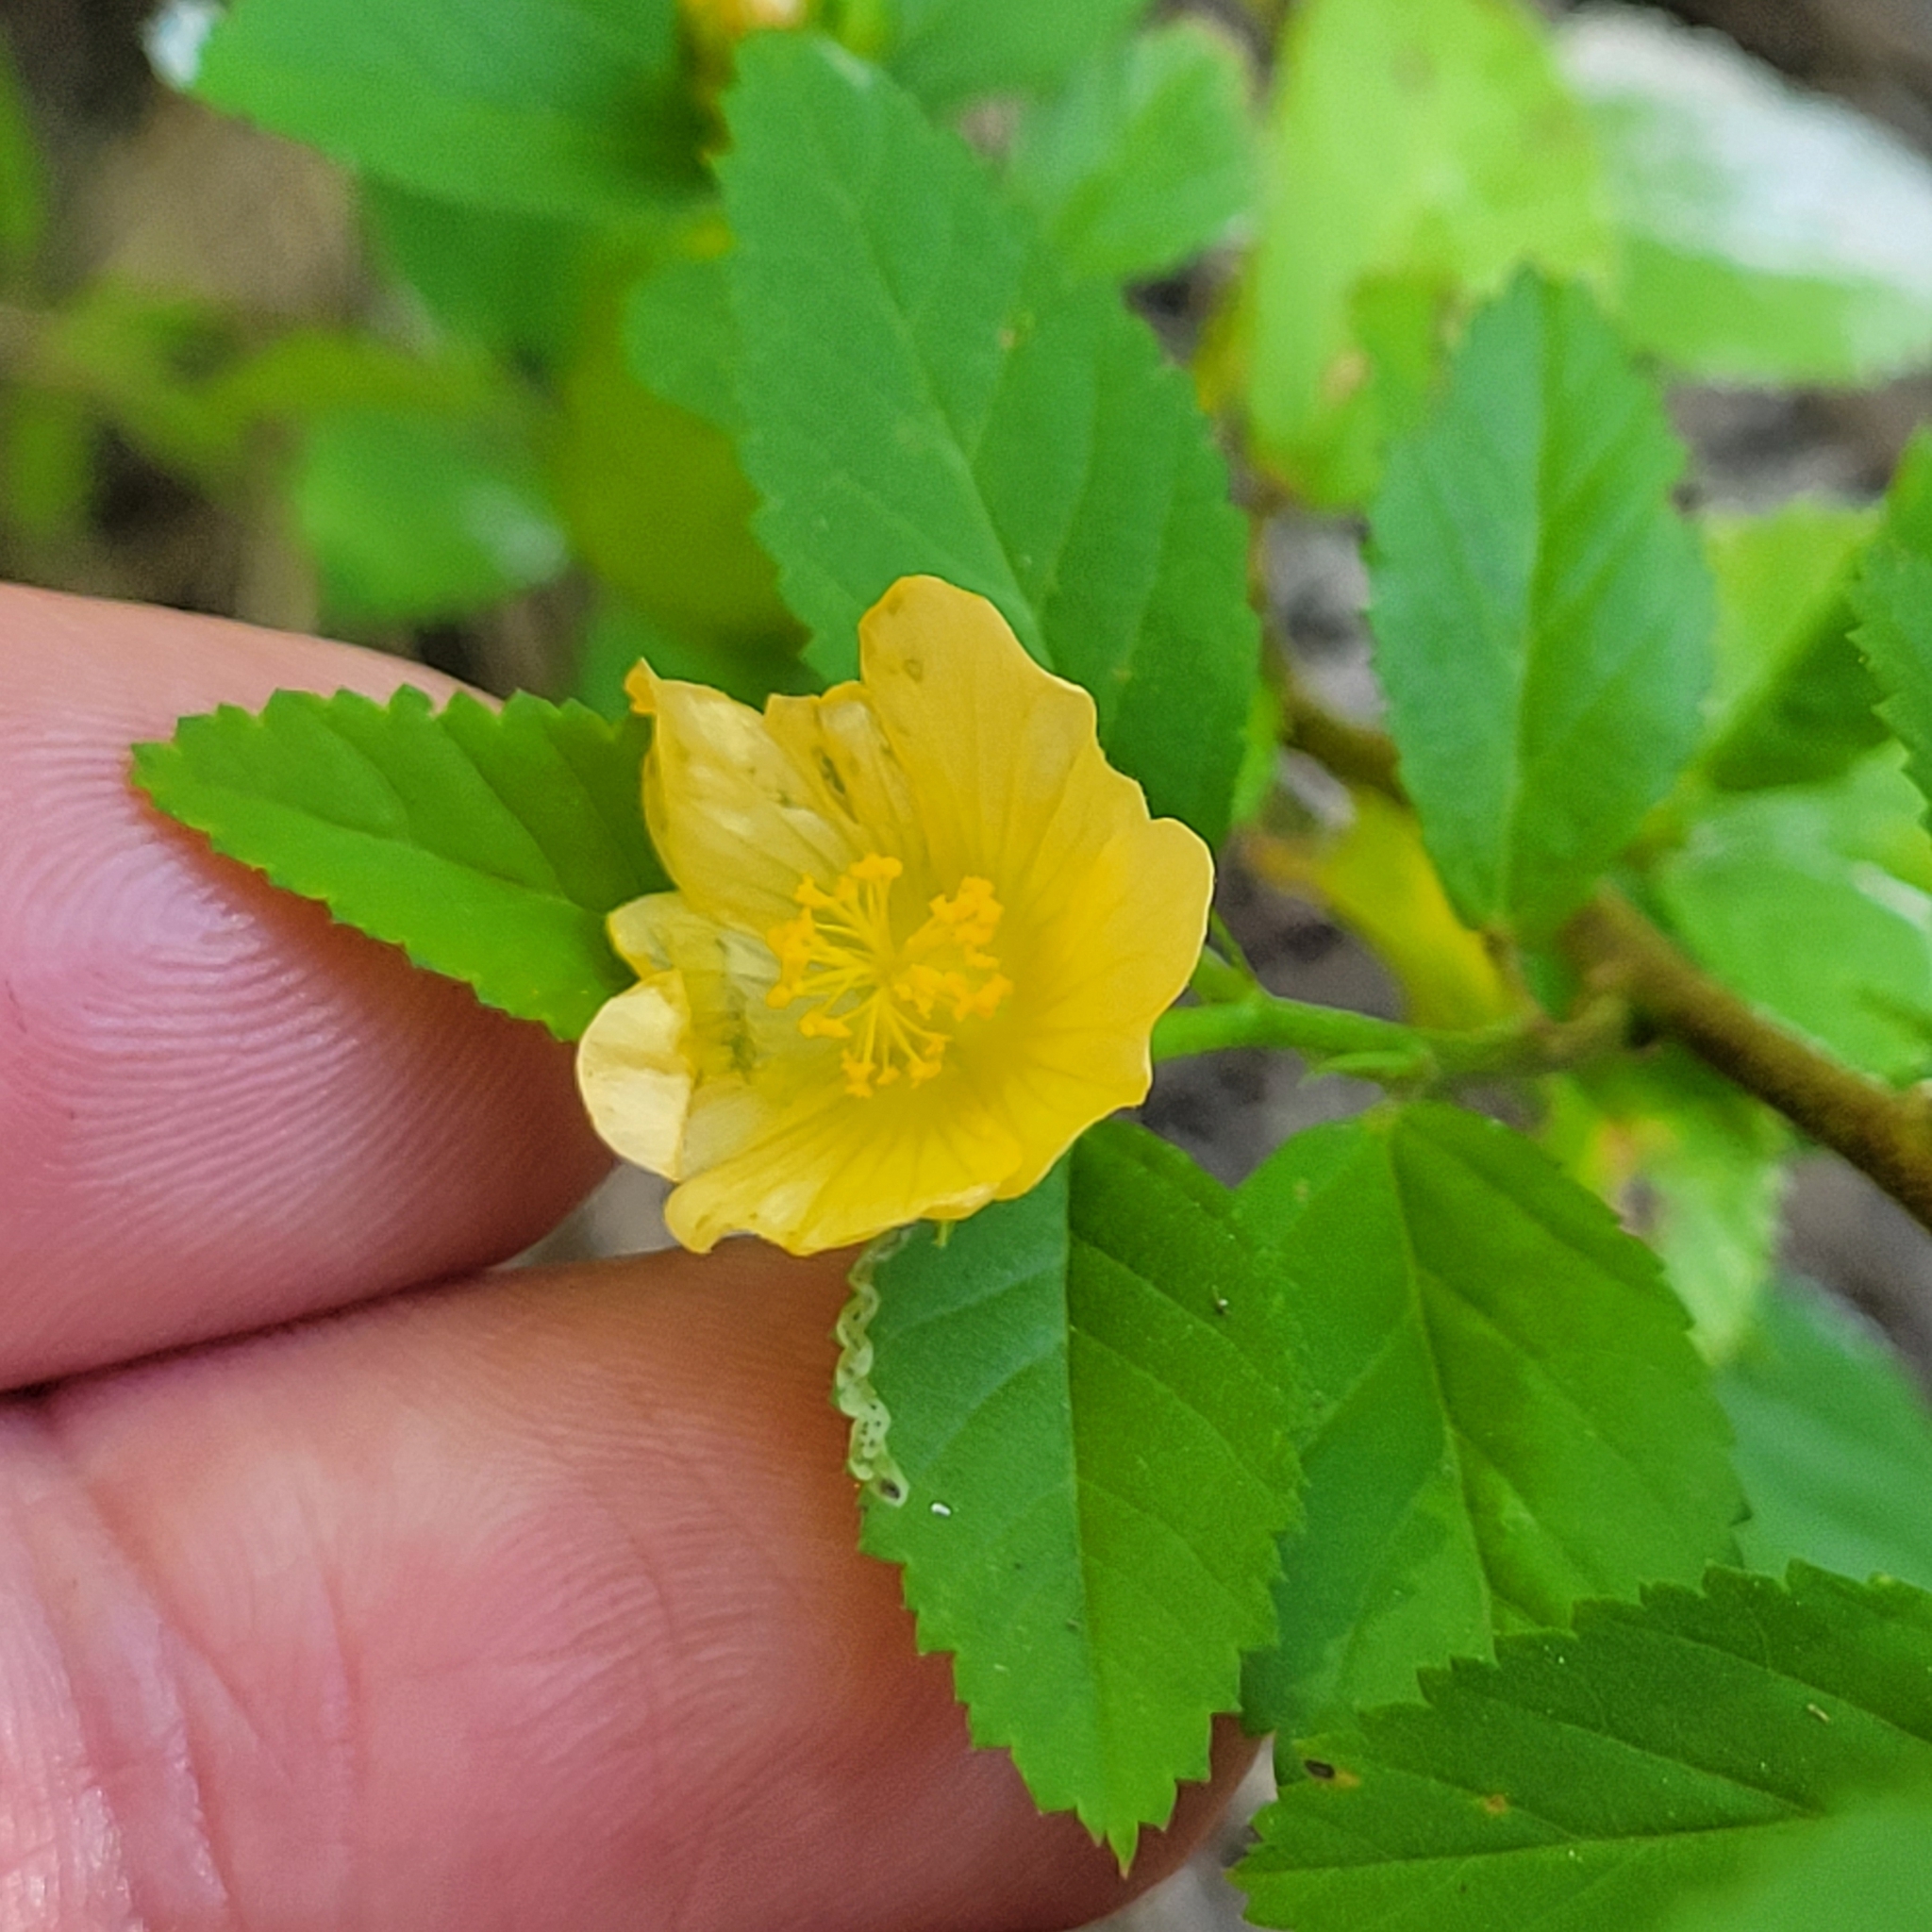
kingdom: Plantae
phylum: Tracheophyta
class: Magnoliopsida
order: Malvales
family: Malvaceae
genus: Sida
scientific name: Sida ulmifolia
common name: Broom weed
